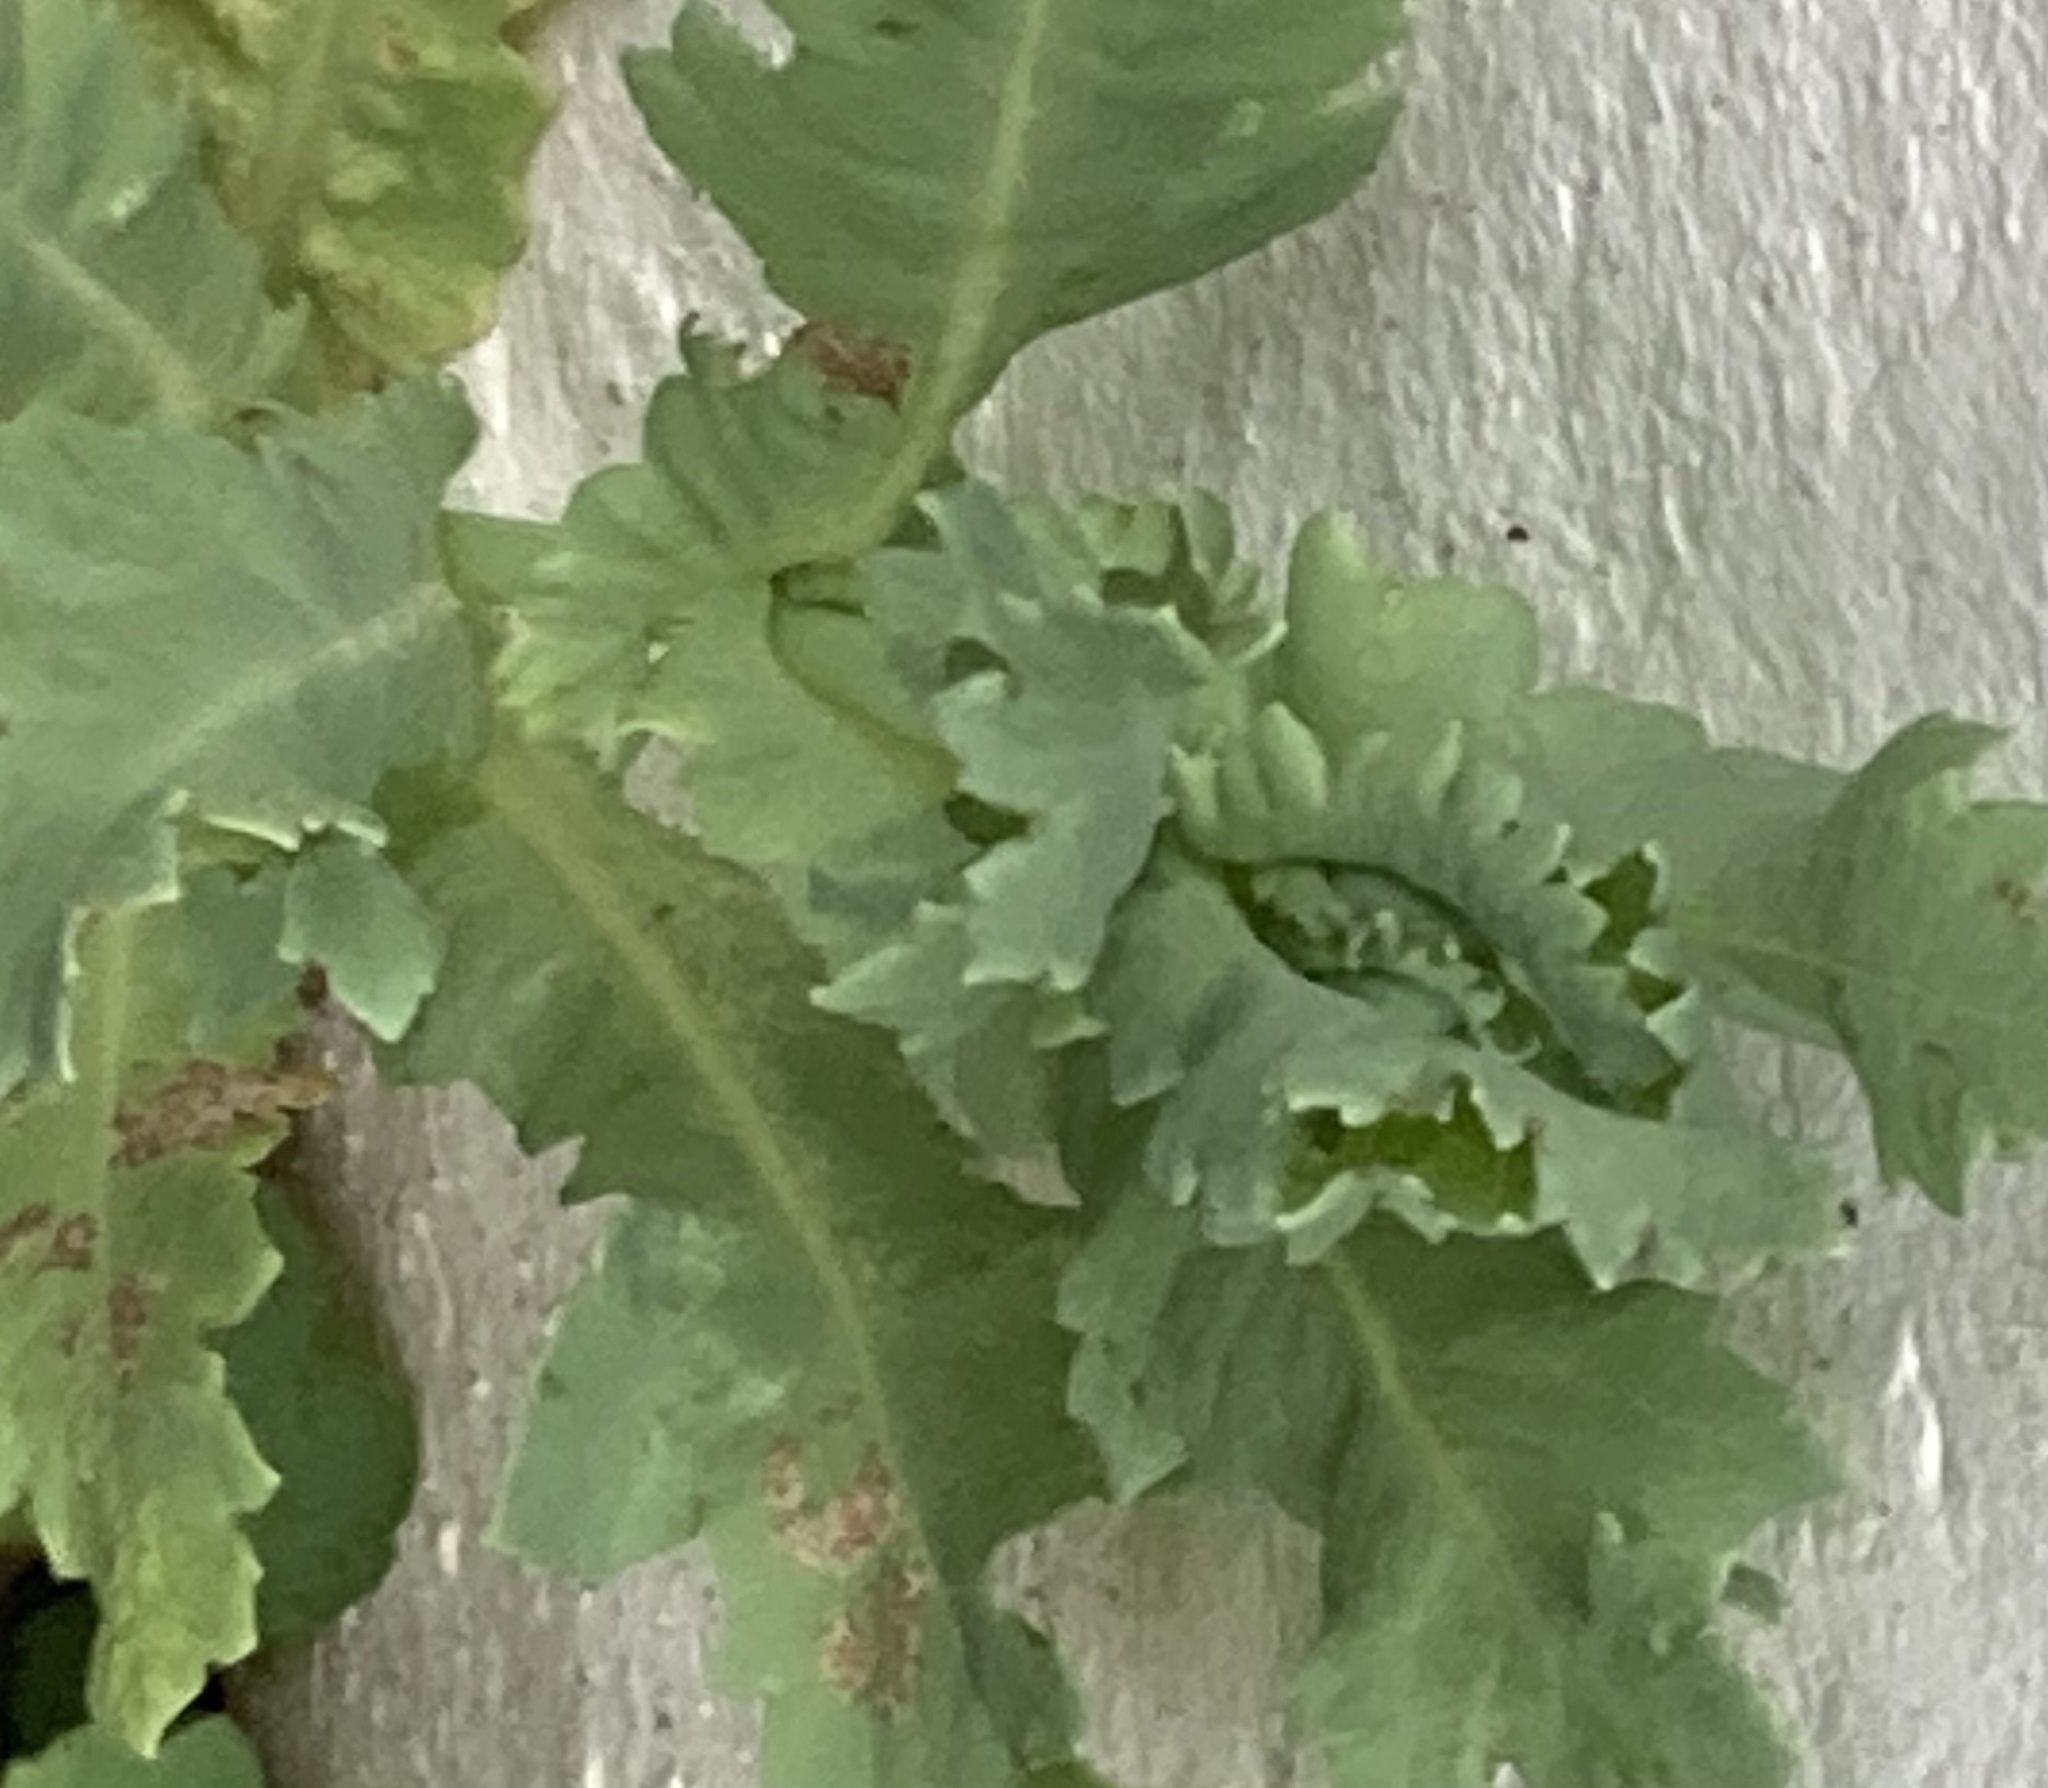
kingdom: Plantae
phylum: Tracheophyta
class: Magnoliopsida
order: Ranunculales
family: Papaveraceae
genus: Papaver
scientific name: Papaver somniferum
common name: Opium poppy
